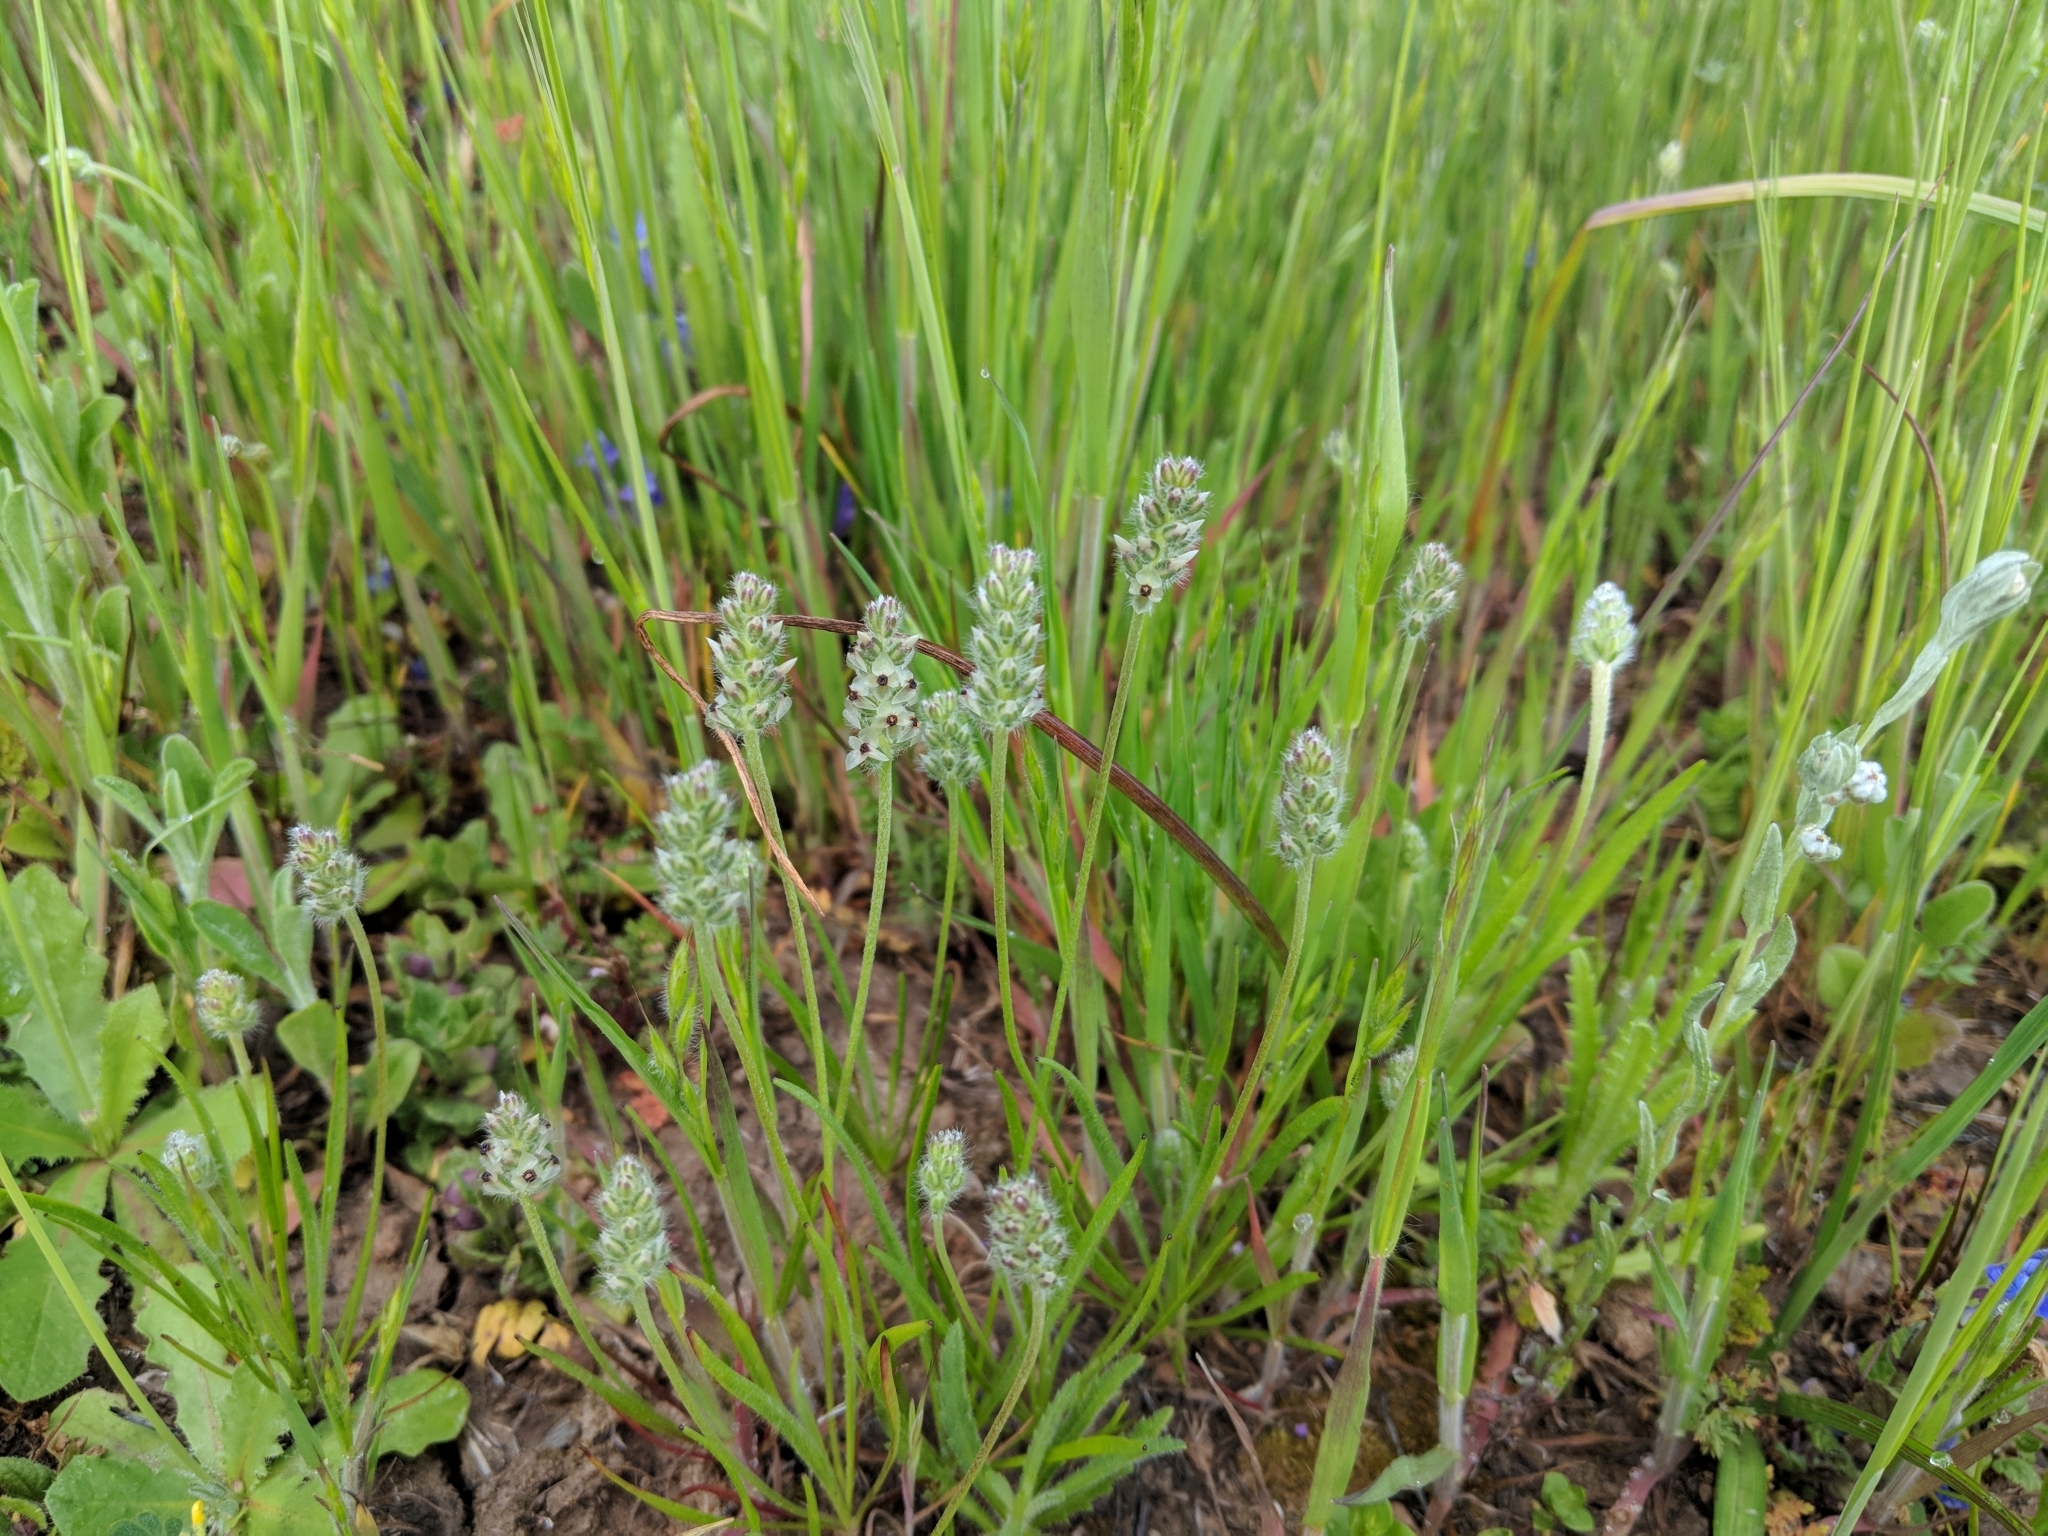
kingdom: Plantae
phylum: Tracheophyta
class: Magnoliopsida
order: Lamiales
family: Plantaginaceae
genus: Plantago
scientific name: Plantago erecta
